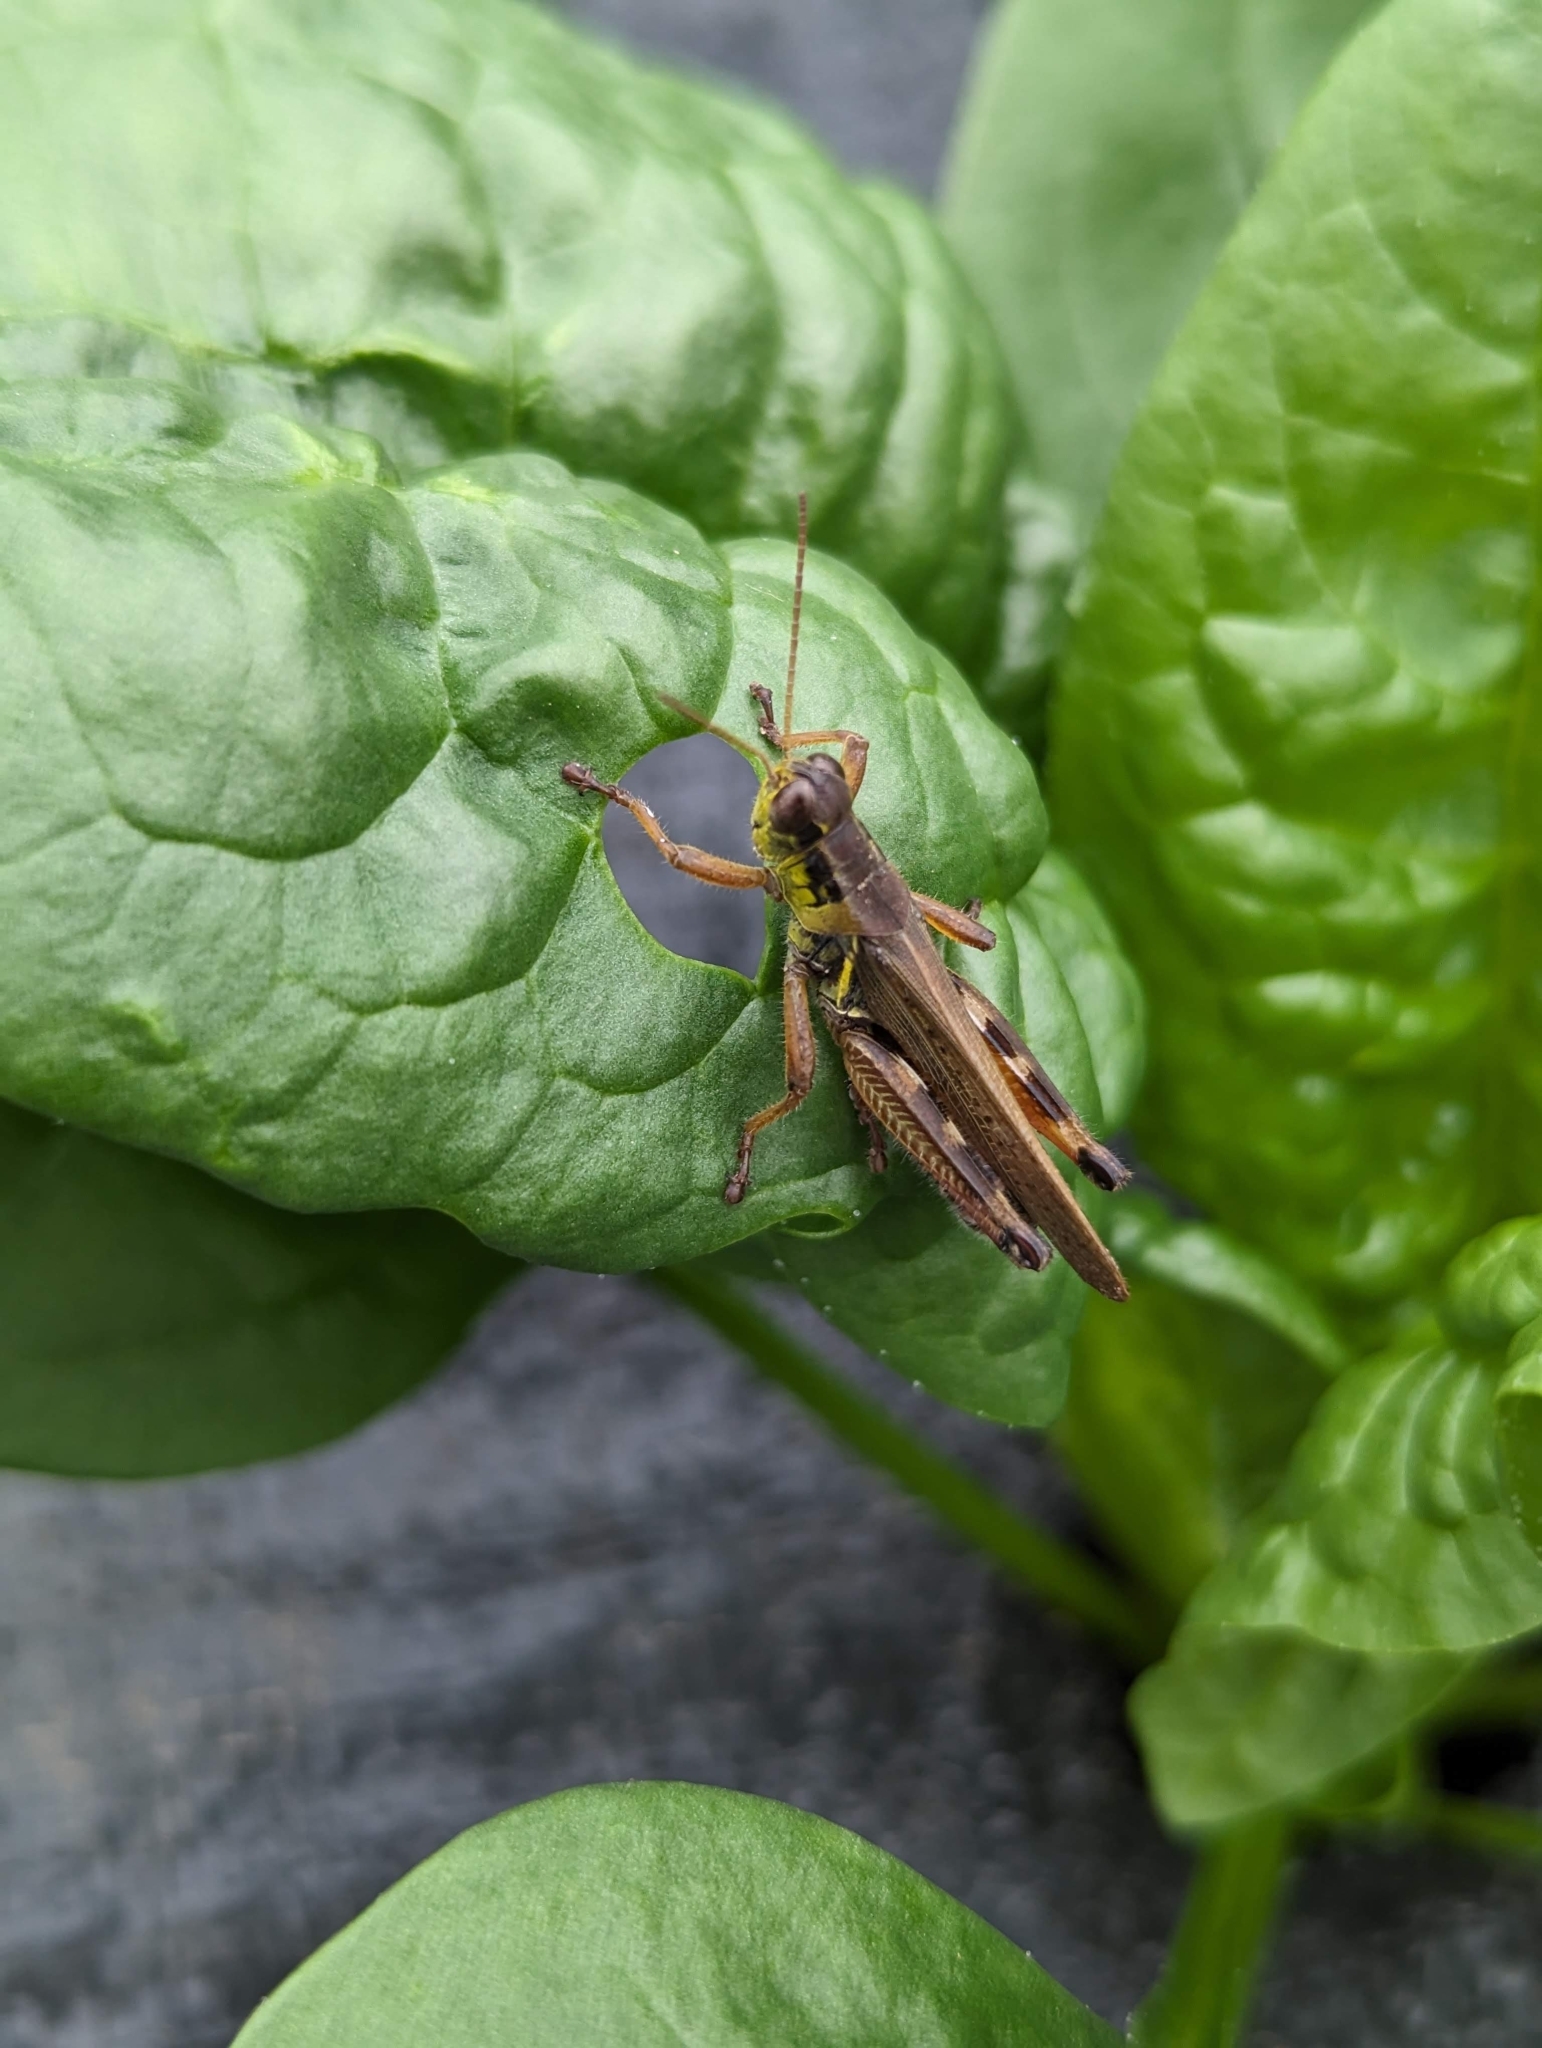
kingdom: Animalia
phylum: Arthropoda
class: Insecta
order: Orthoptera
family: Acrididae
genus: Melanoplus
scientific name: Melanoplus femurrubrum
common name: Red-legged grasshopper
